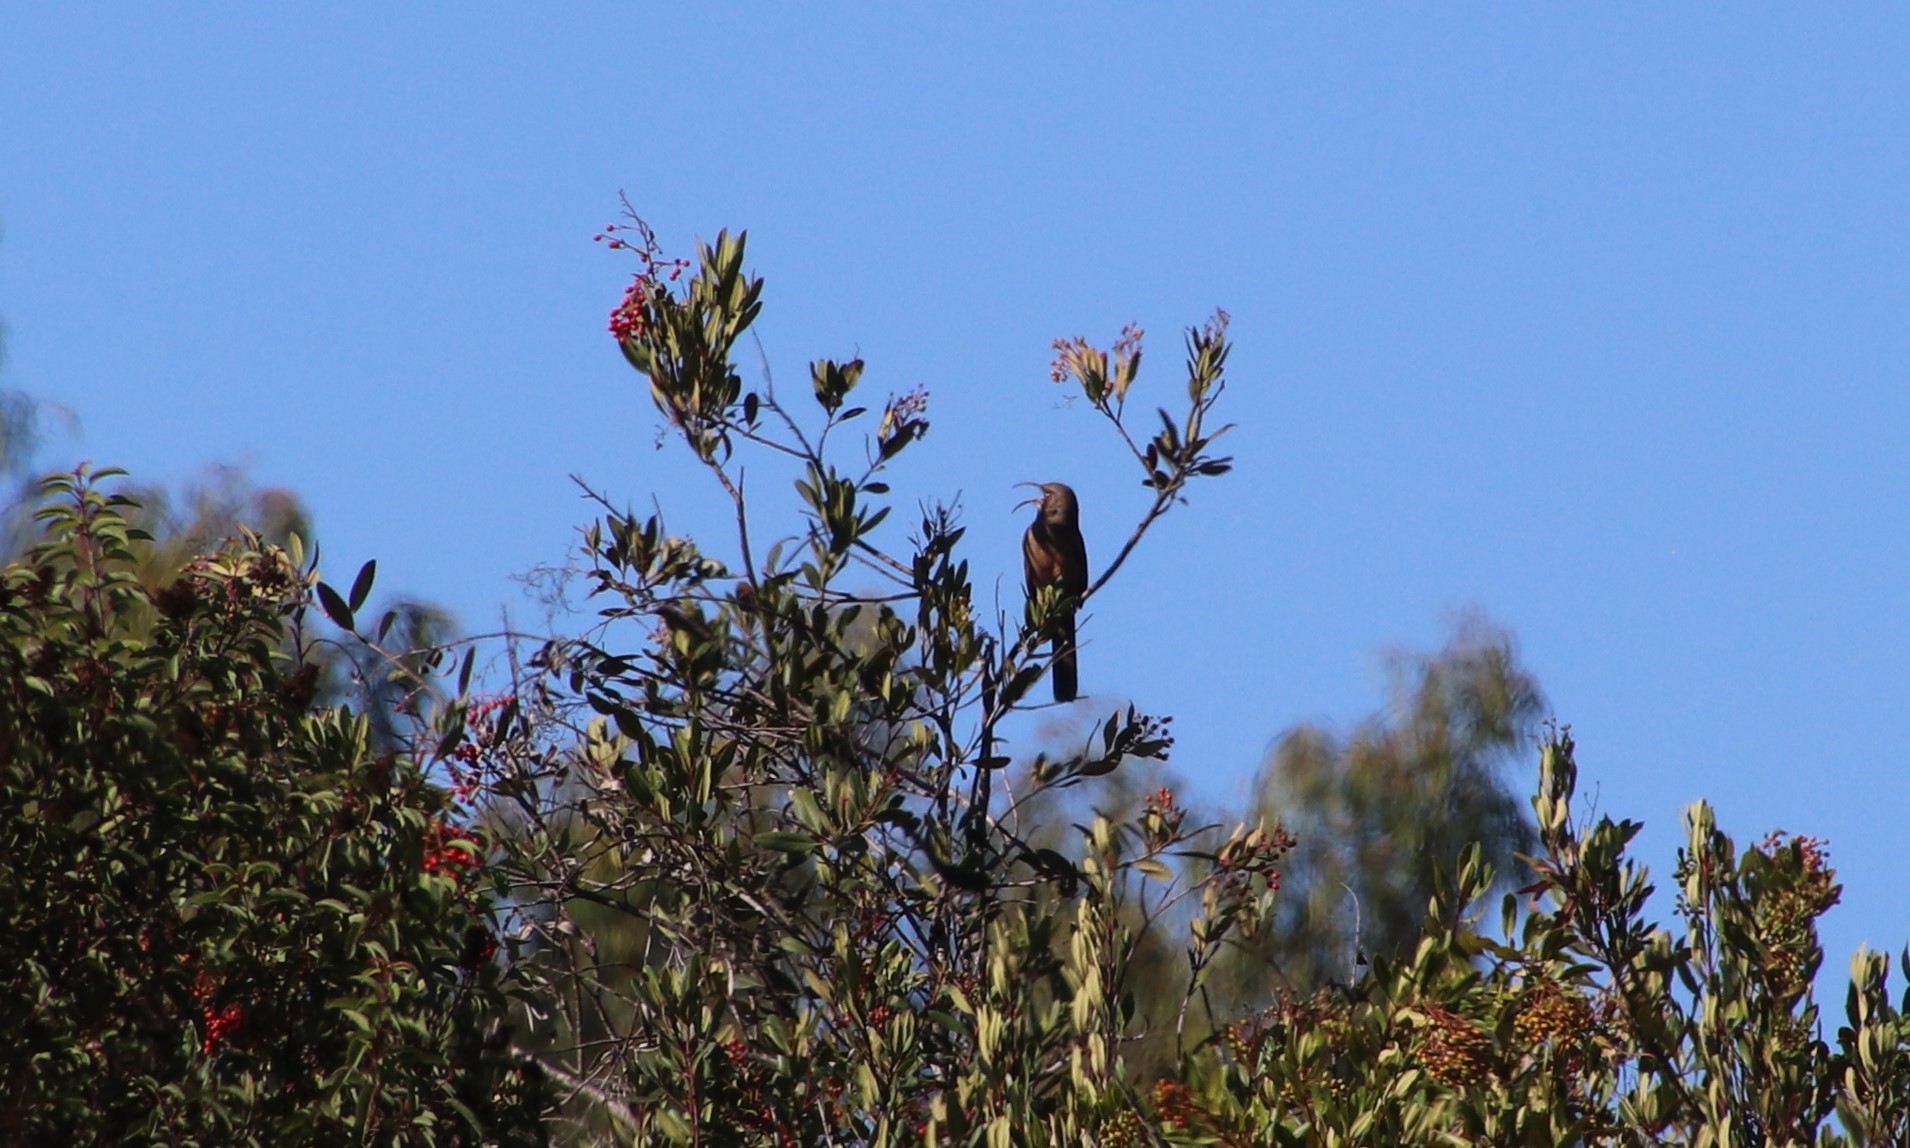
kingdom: Animalia
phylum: Chordata
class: Aves
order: Passeriformes
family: Mimidae
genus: Toxostoma
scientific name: Toxostoma redivivum
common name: California thrasher
